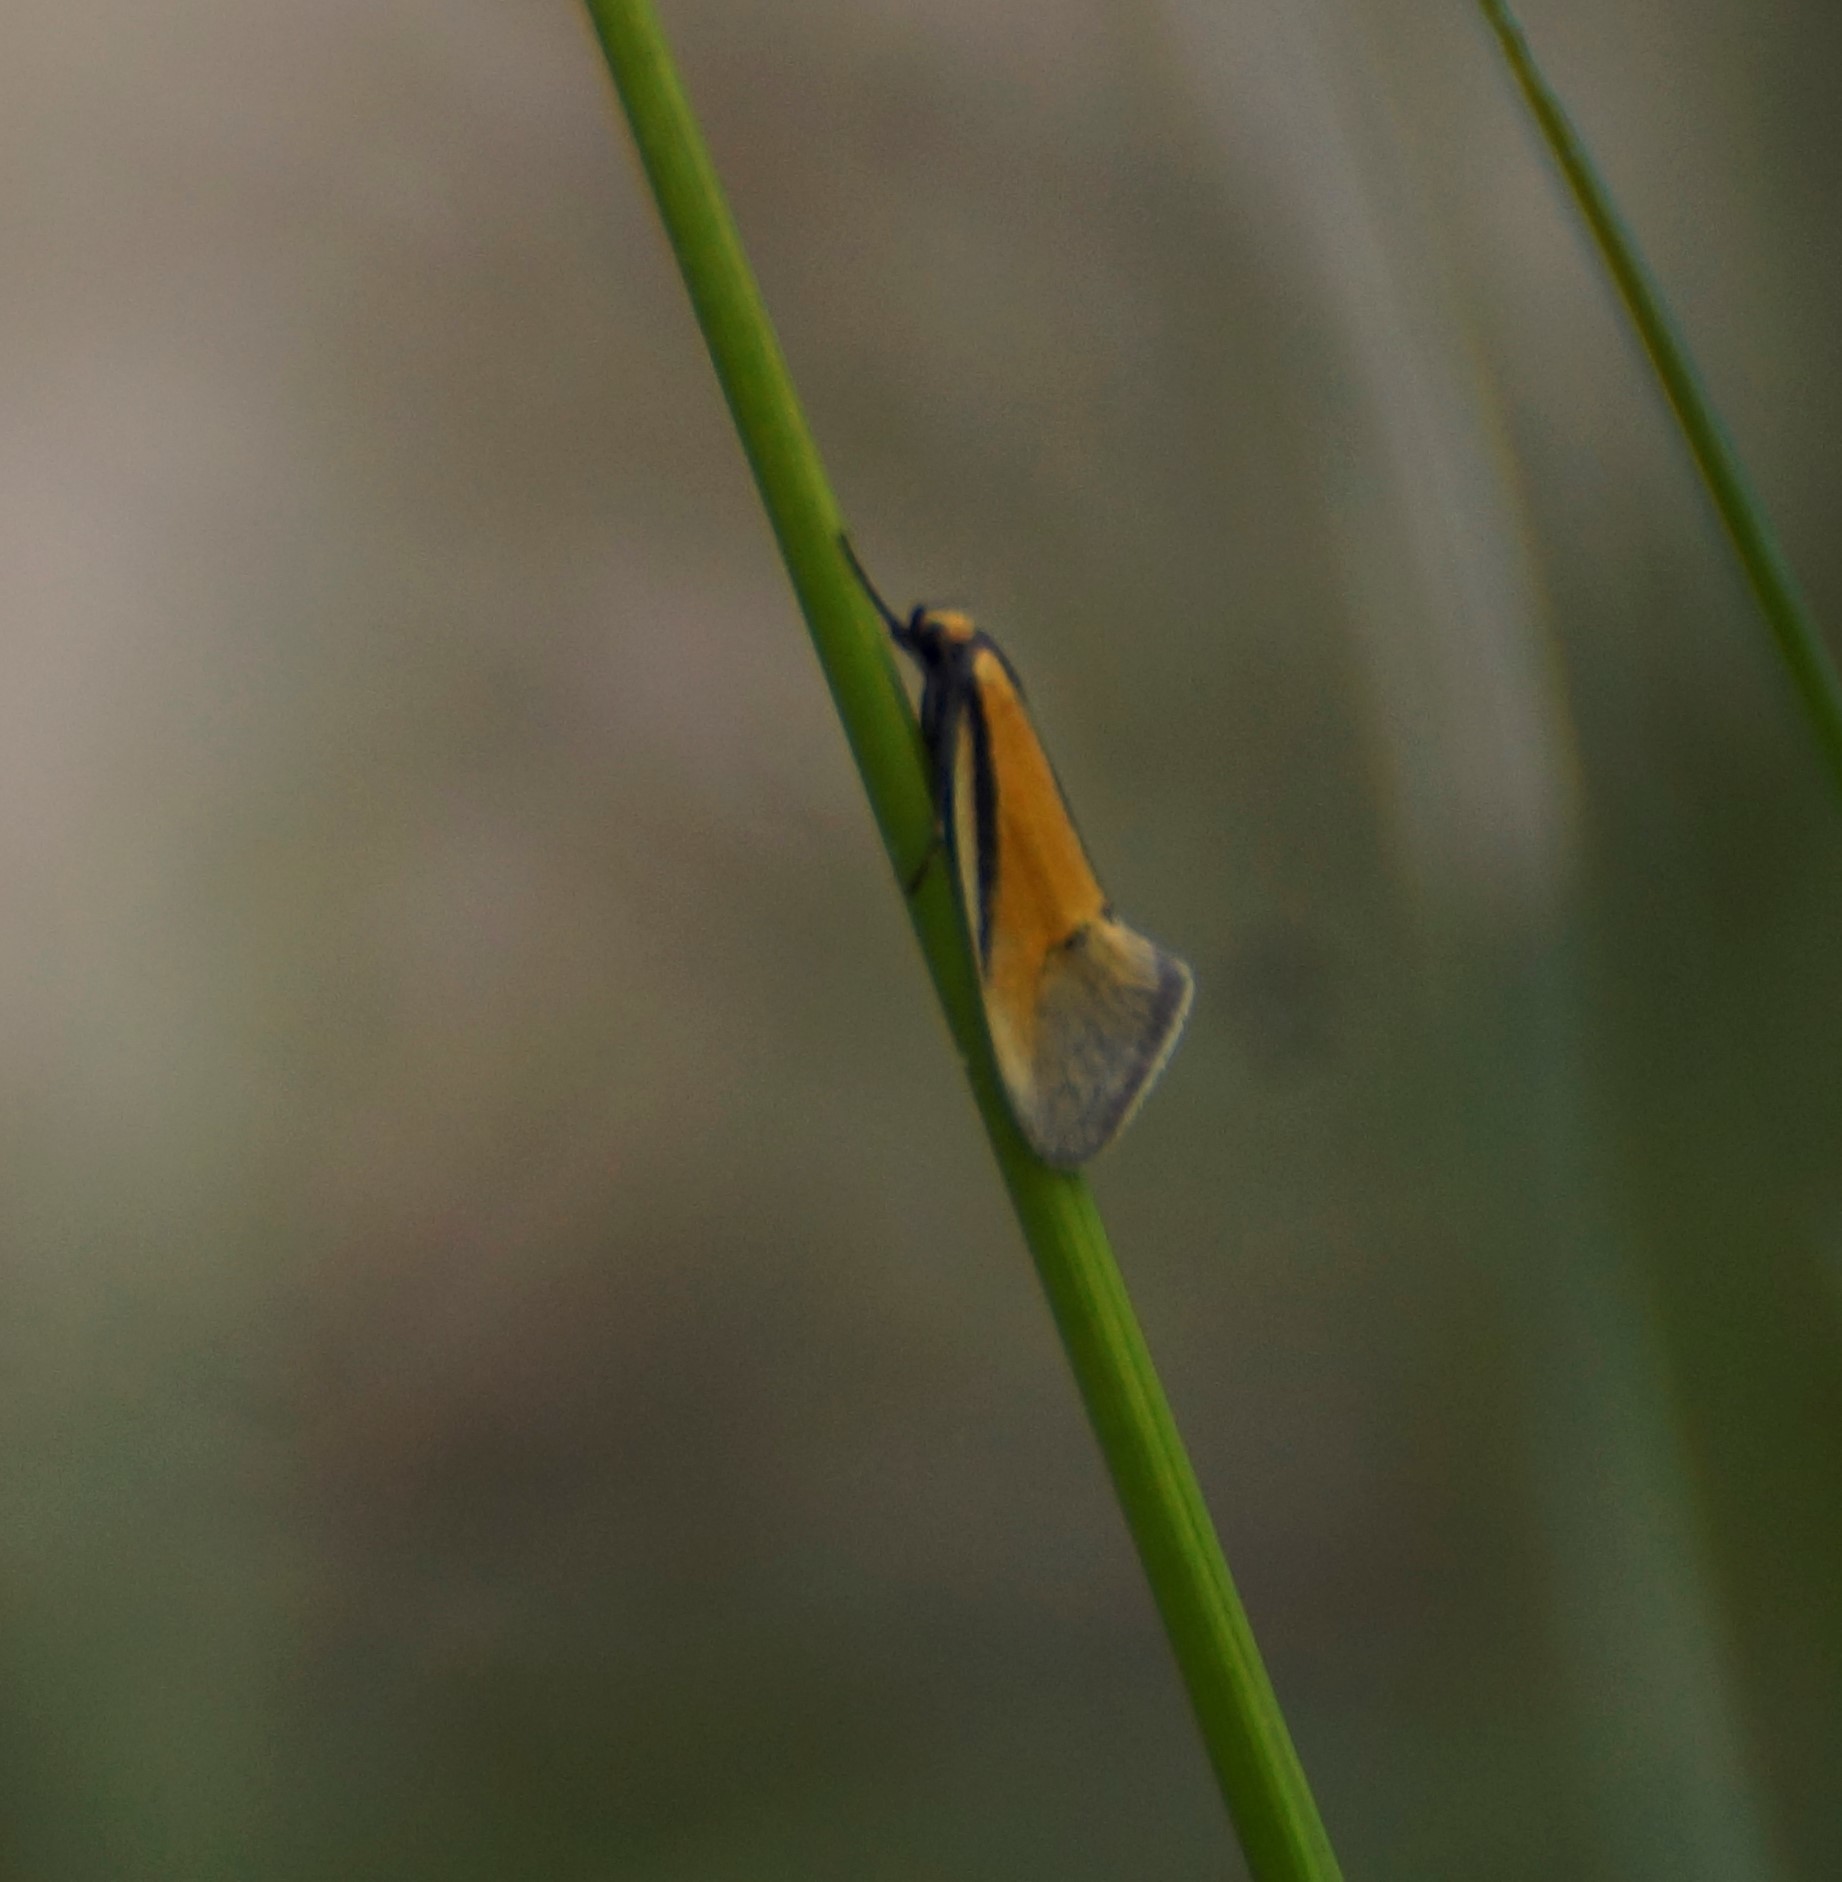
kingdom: Animalia
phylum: Arthropoda
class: Insecta
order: Lepidoptera
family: Oecophoridae
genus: Philobota
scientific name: Philobota arabella
